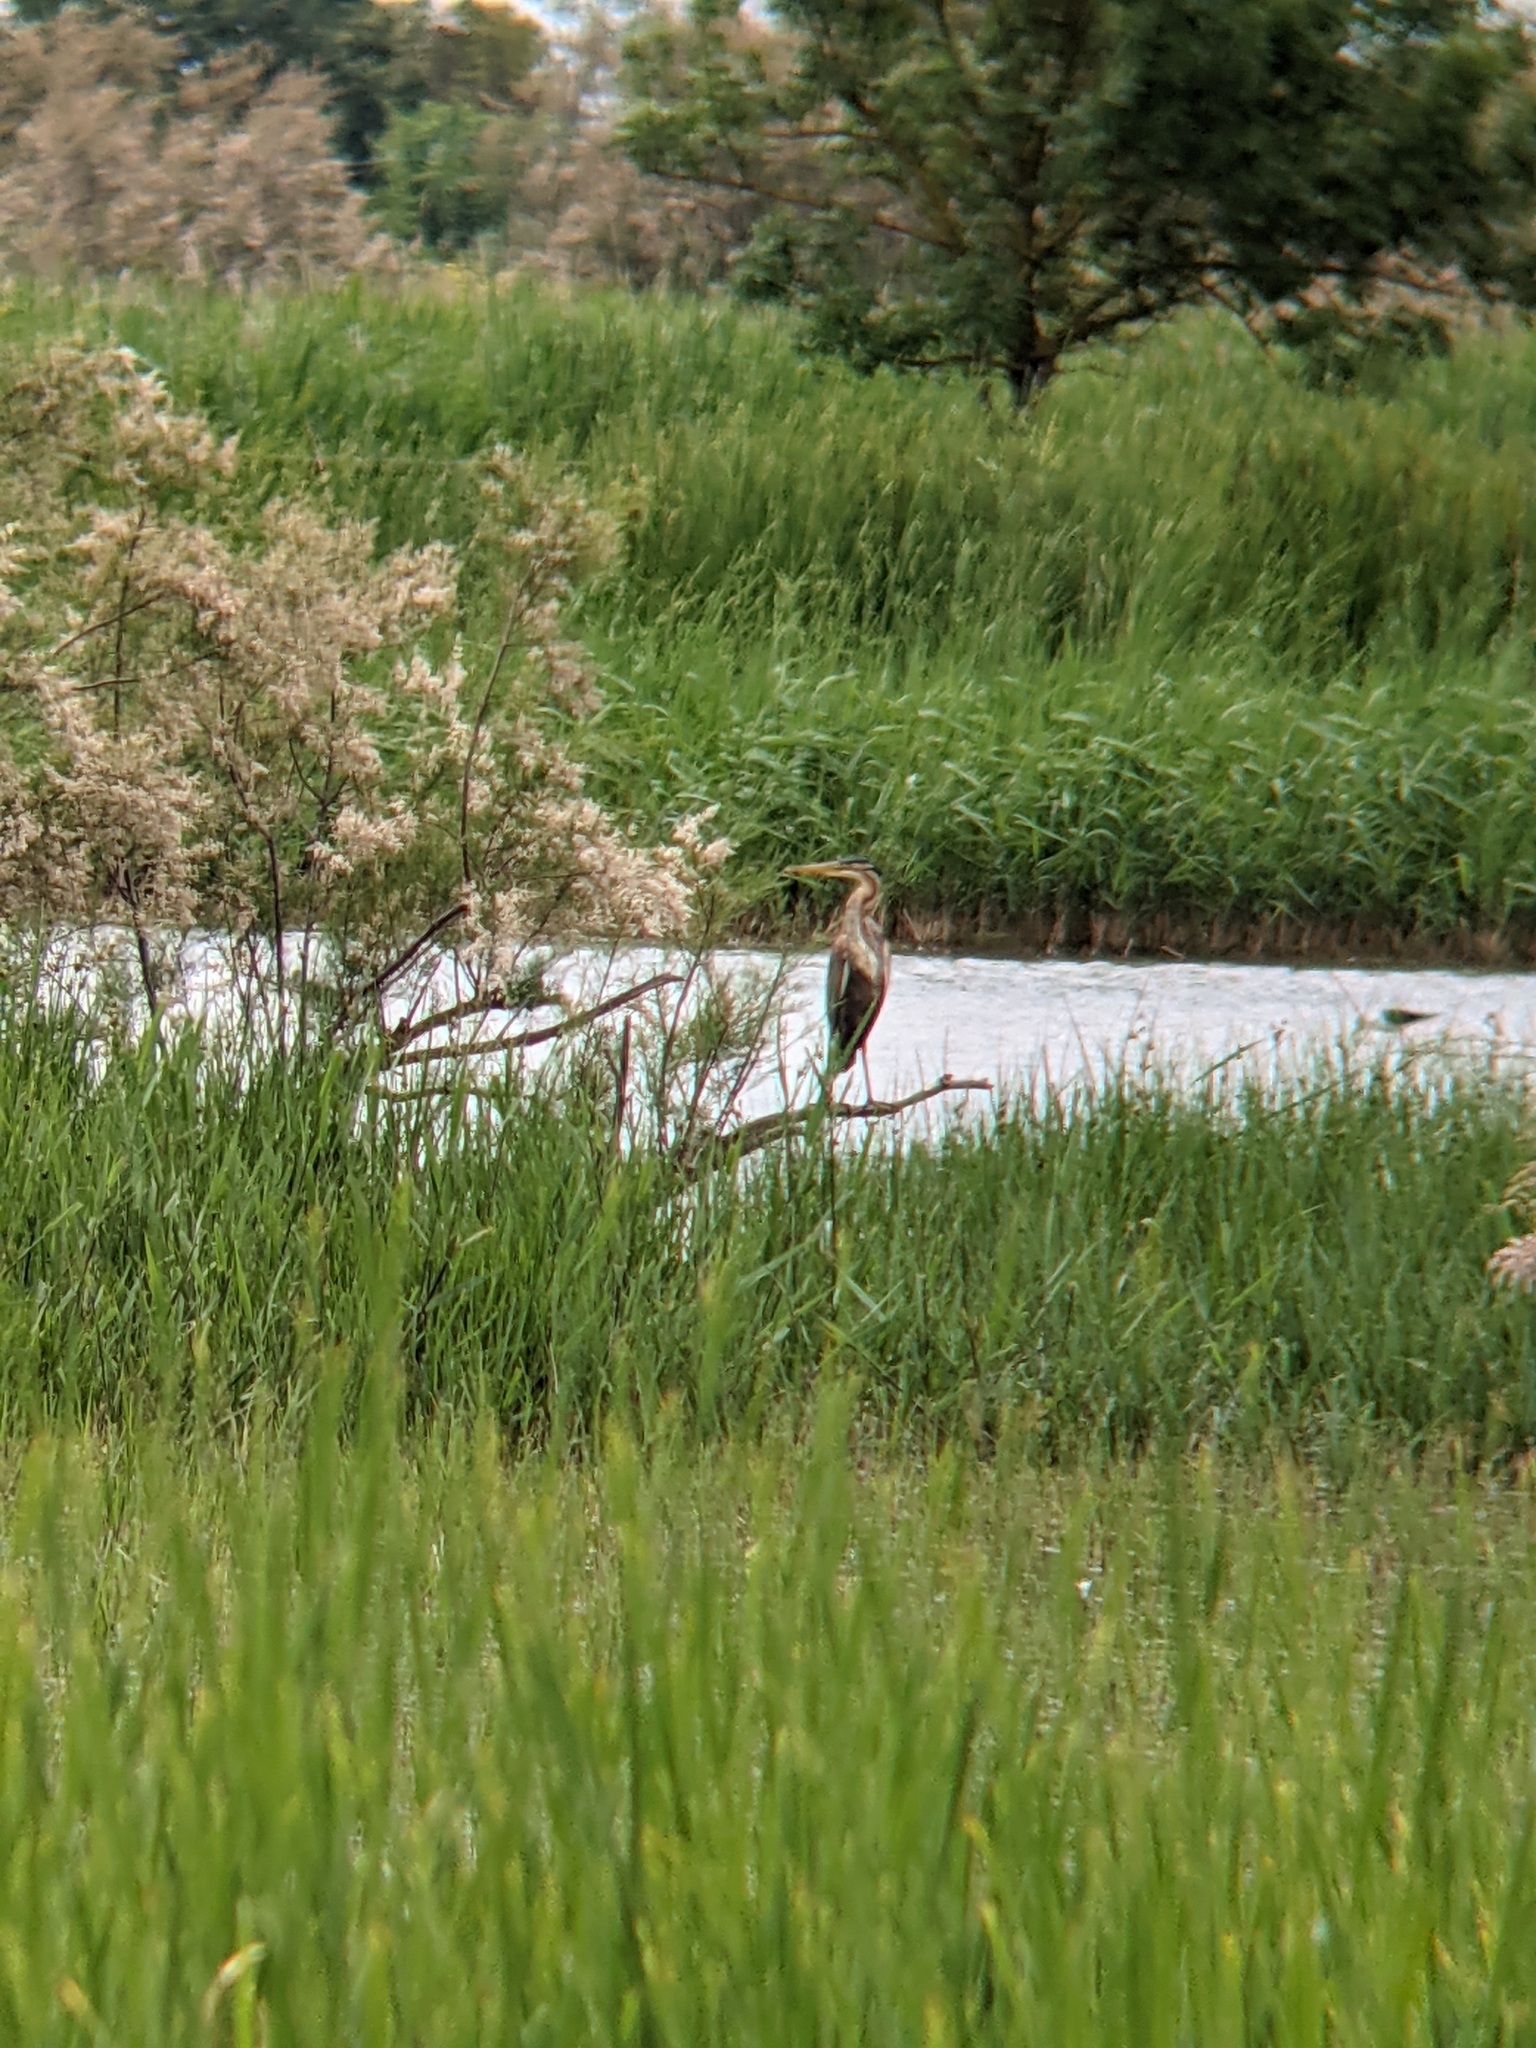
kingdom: Animalia
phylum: Chordata
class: Aves
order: Pelecaniformes
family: Ardeidae
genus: Ardea
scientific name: Ardea purpurea
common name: Purple heron
